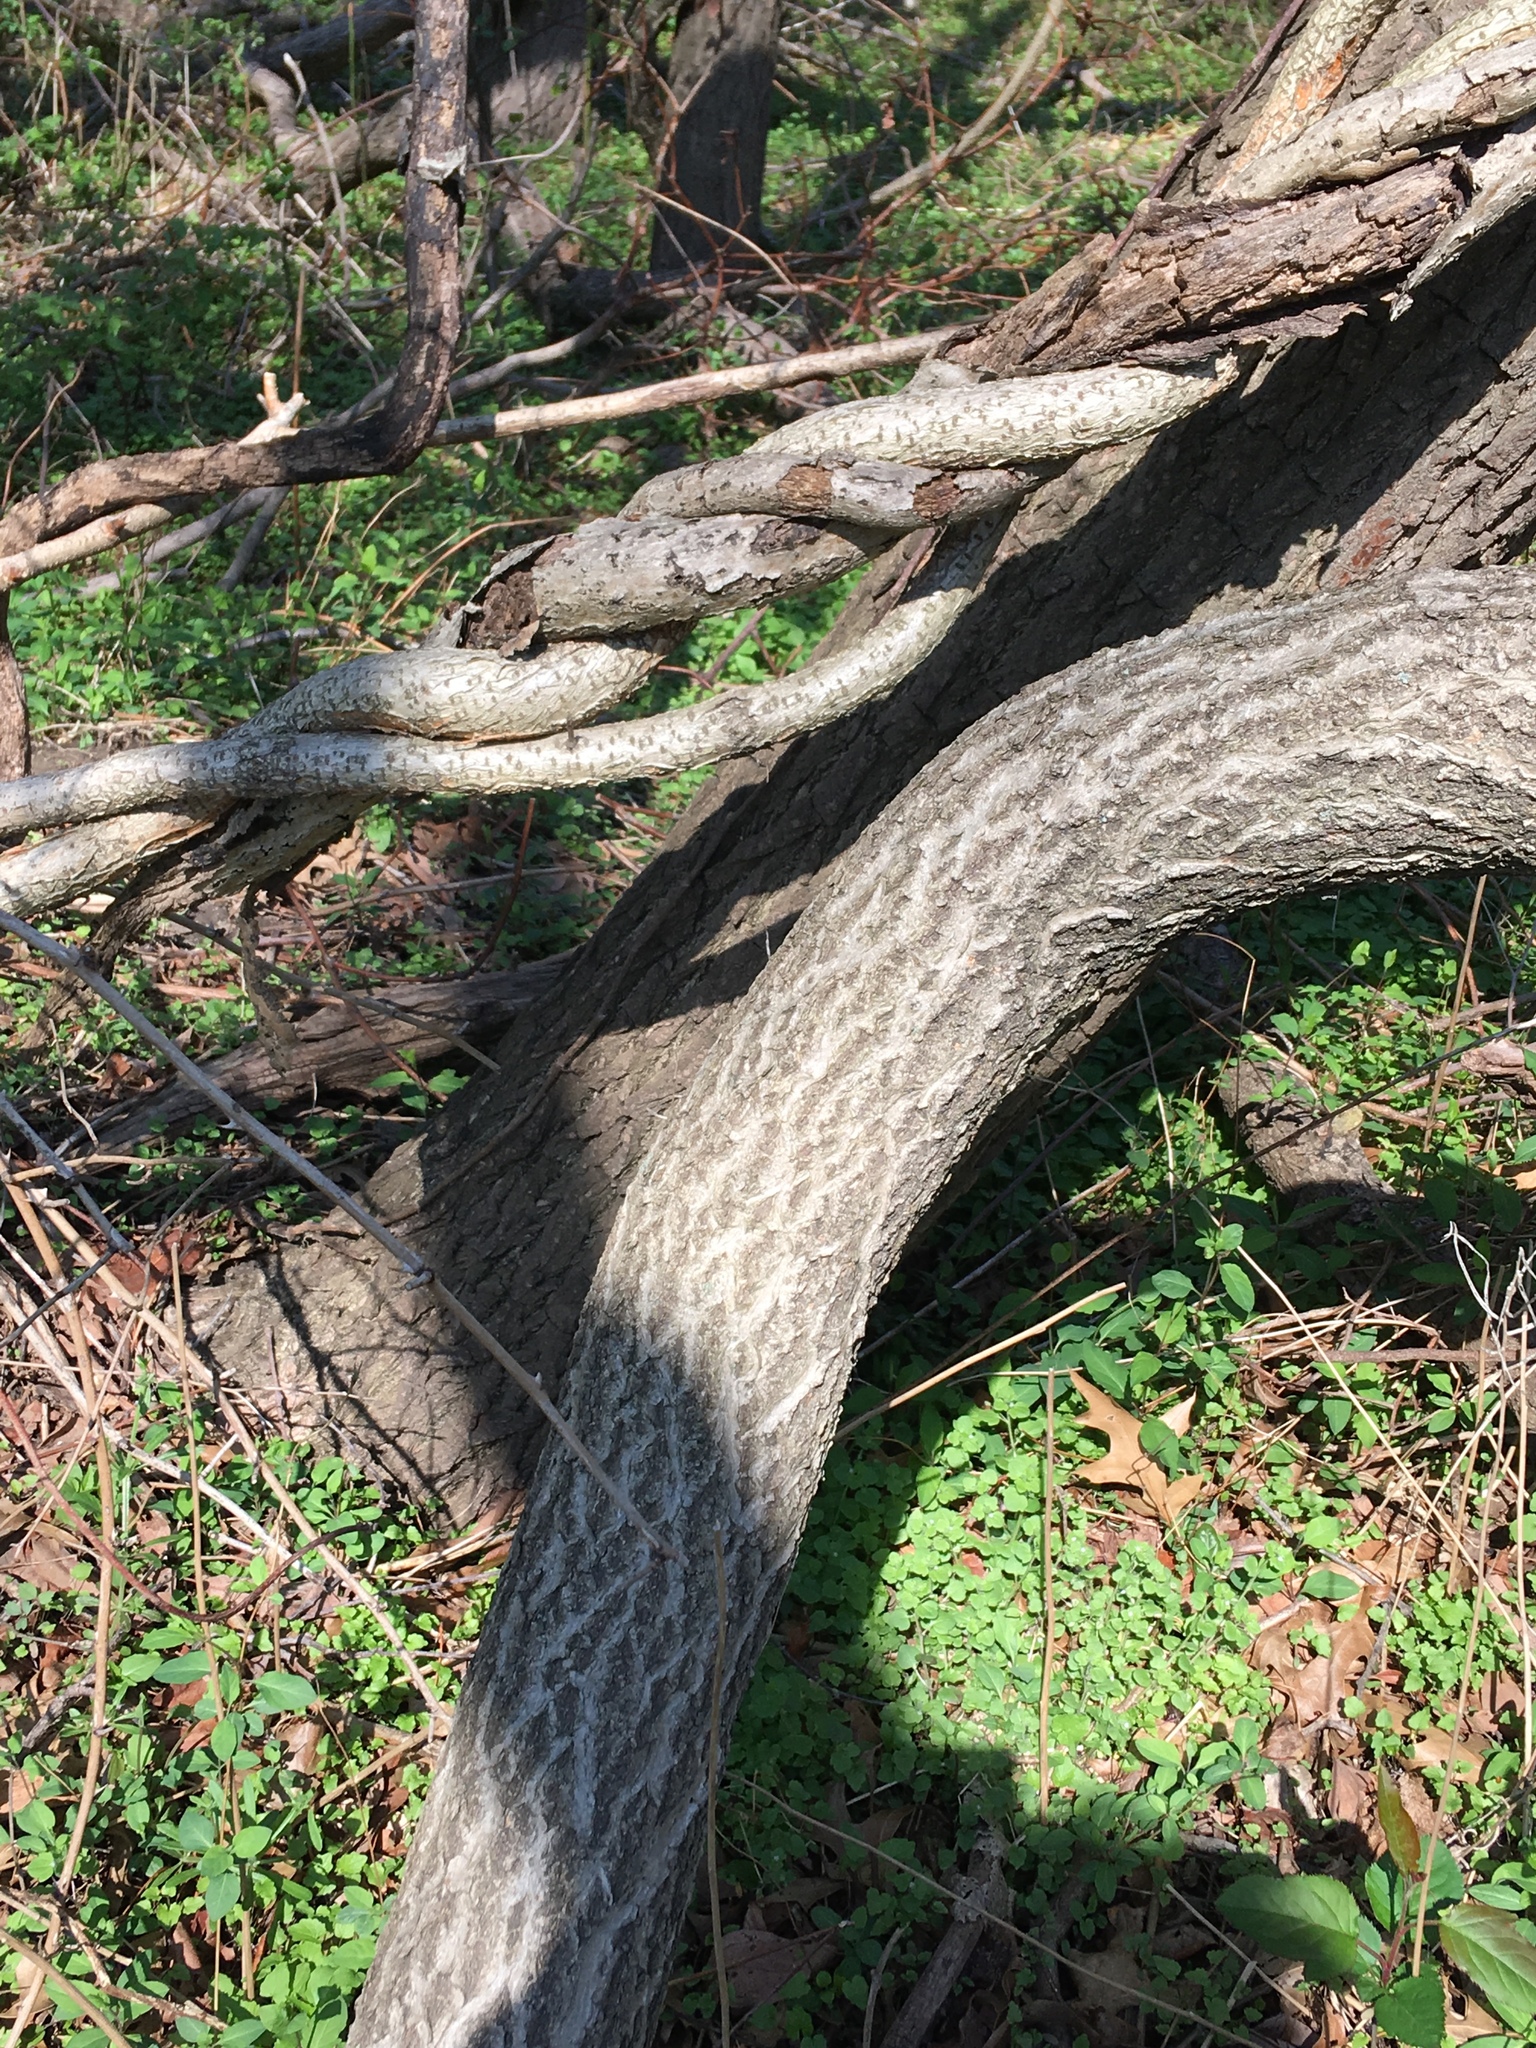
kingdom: Plantae
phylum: Tracheophyta
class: Magnoliopsida
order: Celastrales
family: Celastraceae
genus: Celastrus
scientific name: Celastrus orbiculatus
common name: Oriental bittersweet
